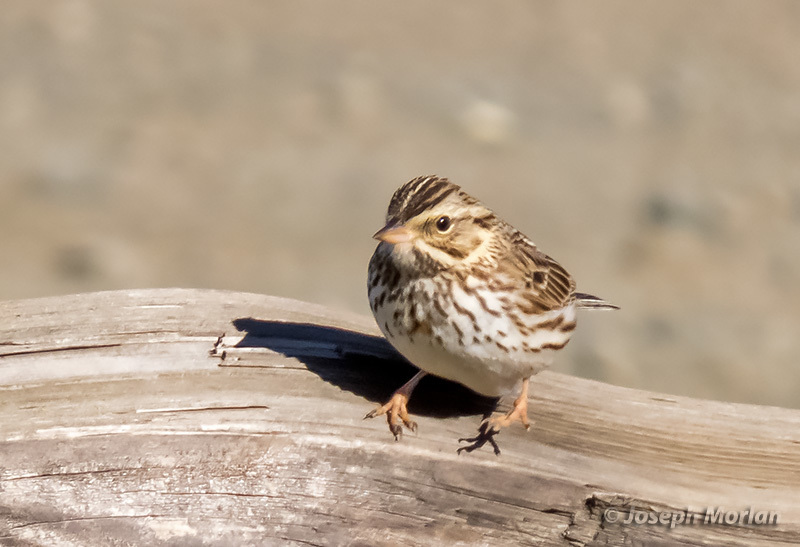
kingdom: Animalia
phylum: Chordata
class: Aves
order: Passeriformes
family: Passerellidae
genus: Passerculus
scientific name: Passerculus sandwichensis
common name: Savannah sparrow
